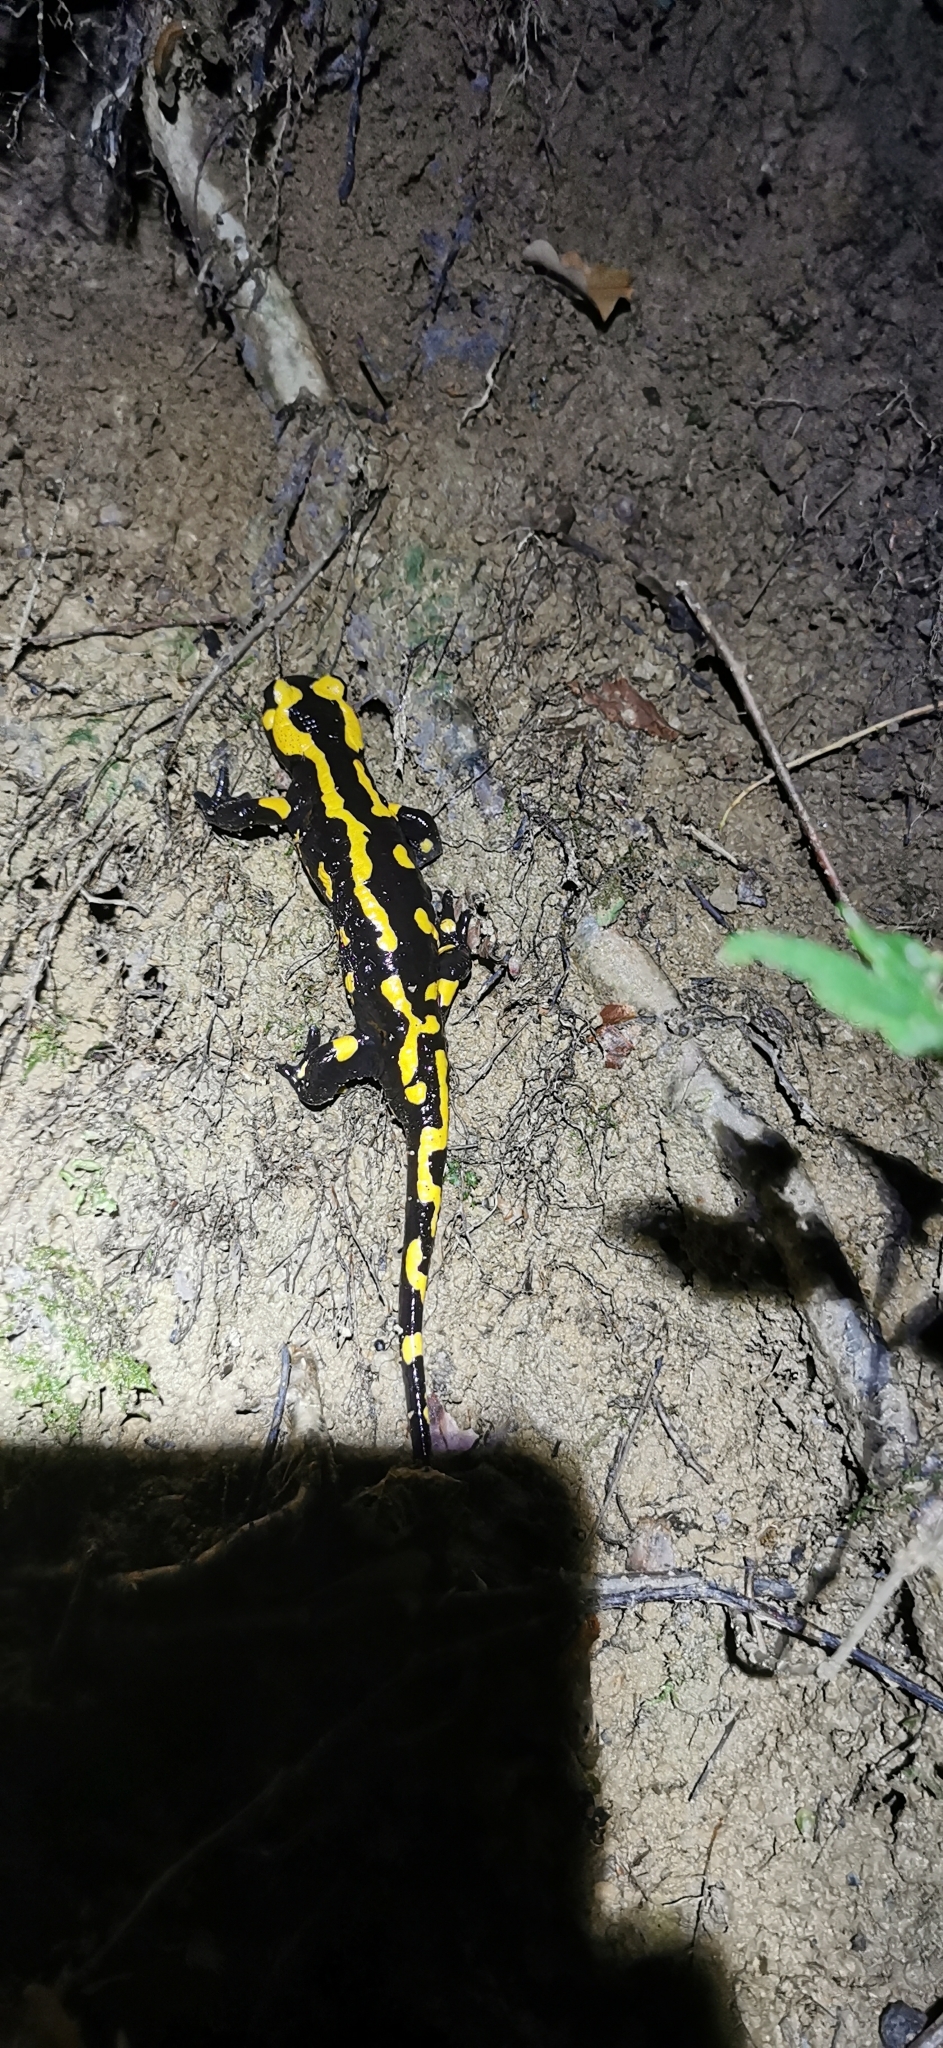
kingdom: Animalia
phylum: Chordata
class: Amphibia
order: Caudata
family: Salamandridae
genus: Salamandra
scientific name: Salamandra salamandra
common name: Fire salamander
